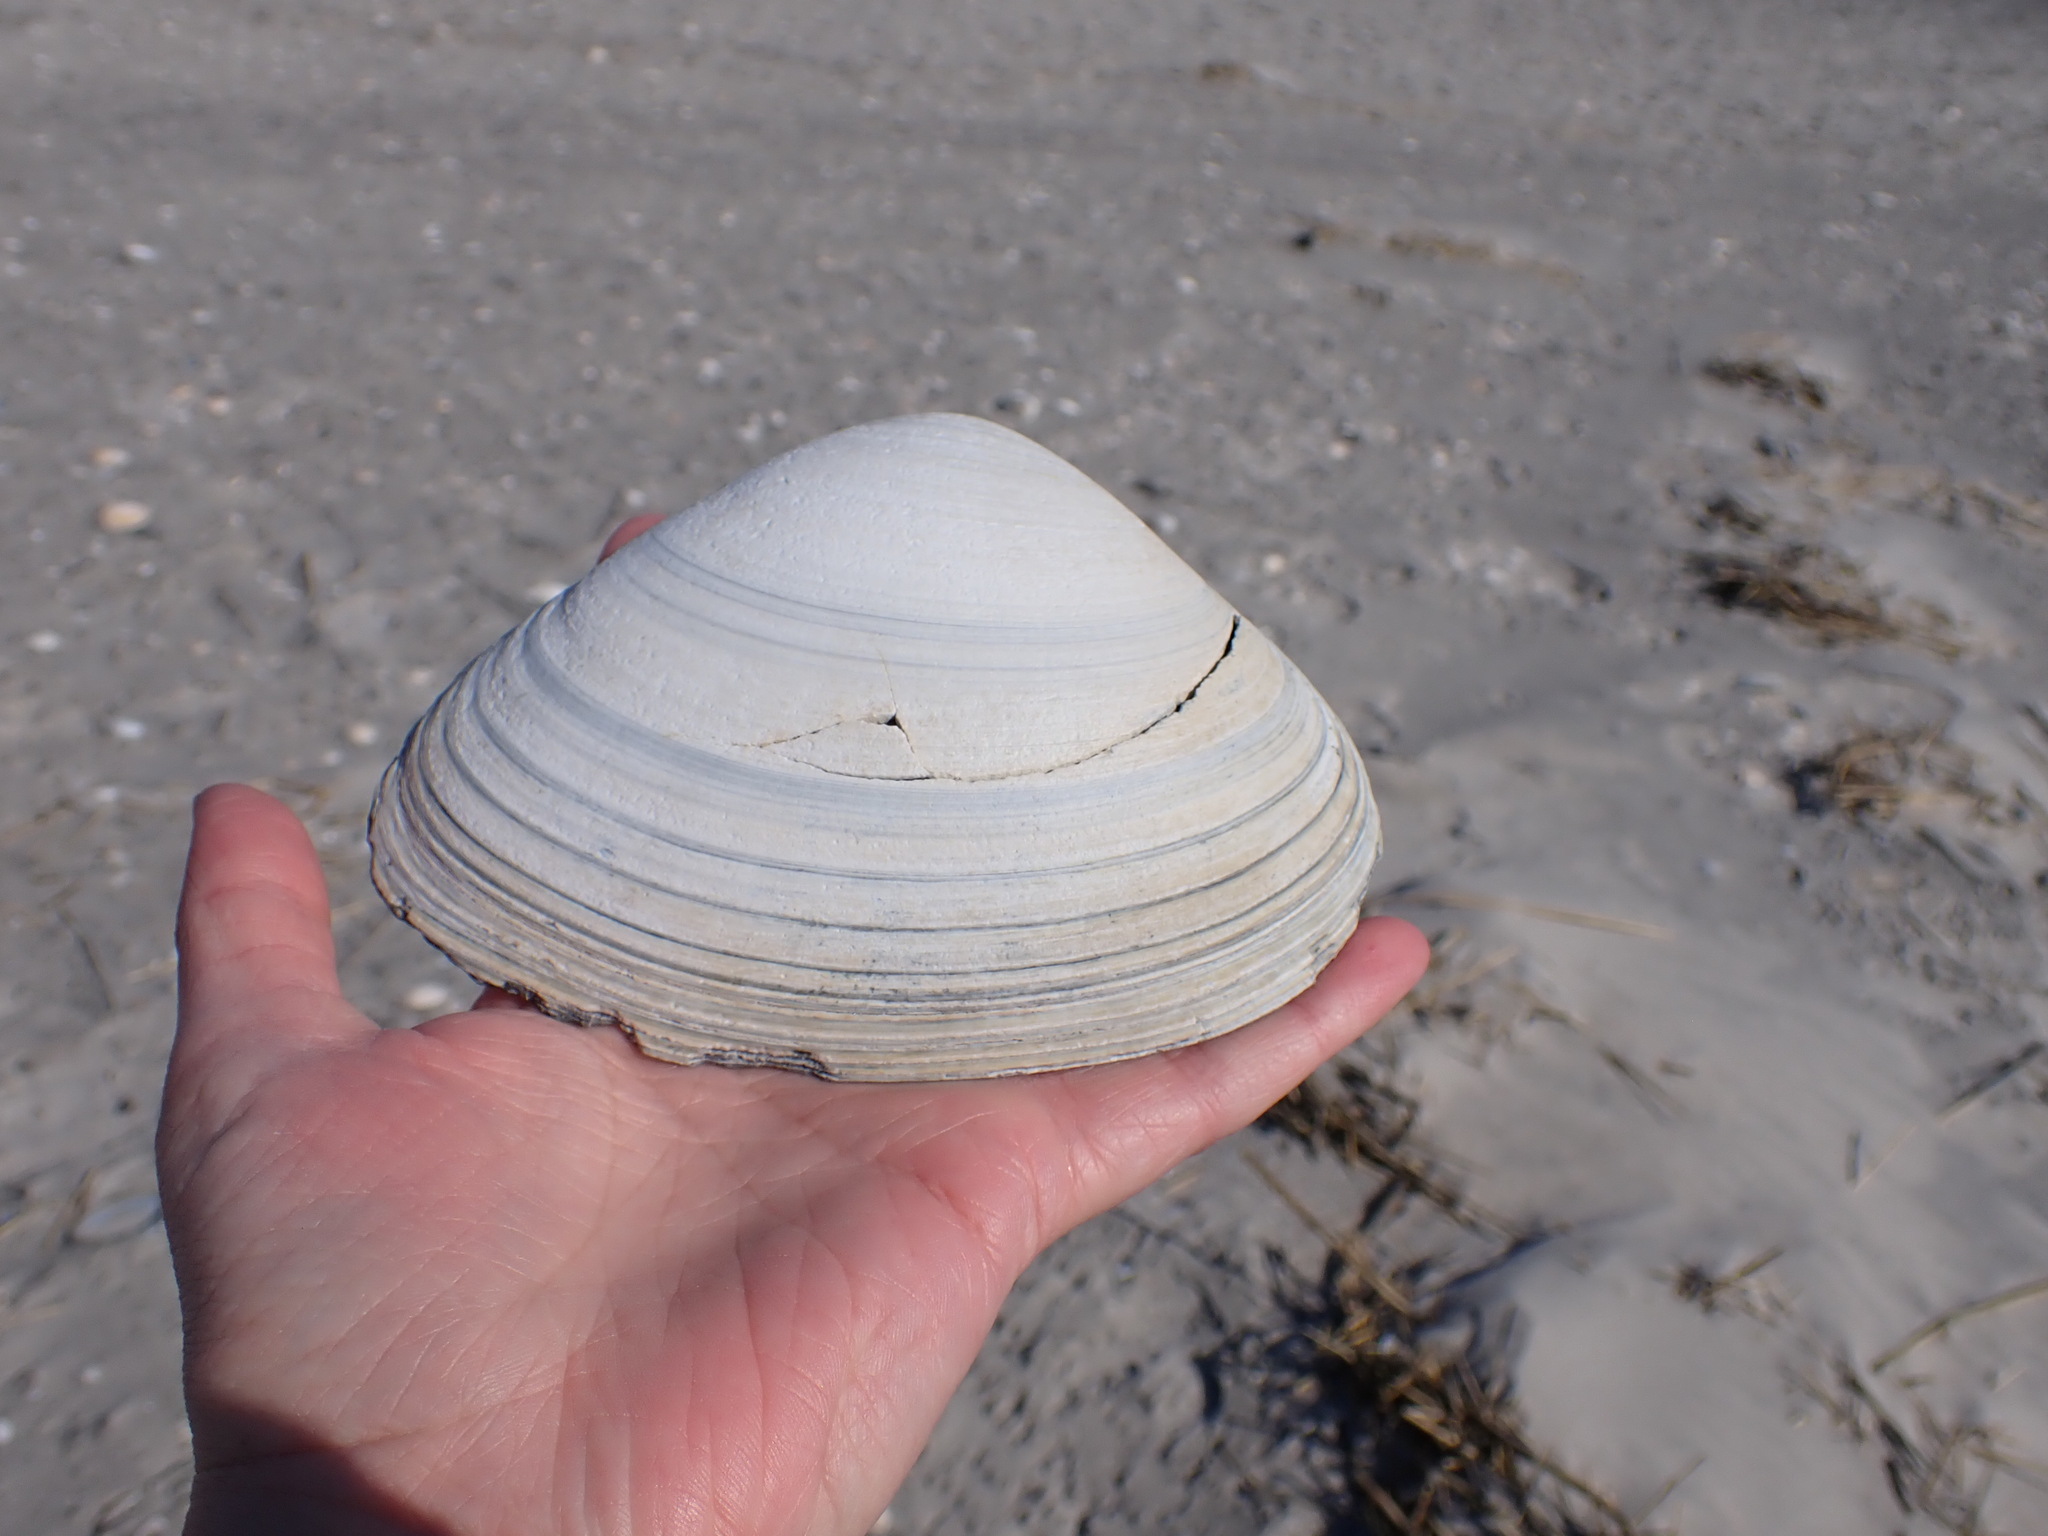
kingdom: Animalia
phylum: Mollusca
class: Bivalvia
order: Venerida
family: Mactridae
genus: Spisula
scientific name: Spisula solidissima
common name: Atlantic surf clam
